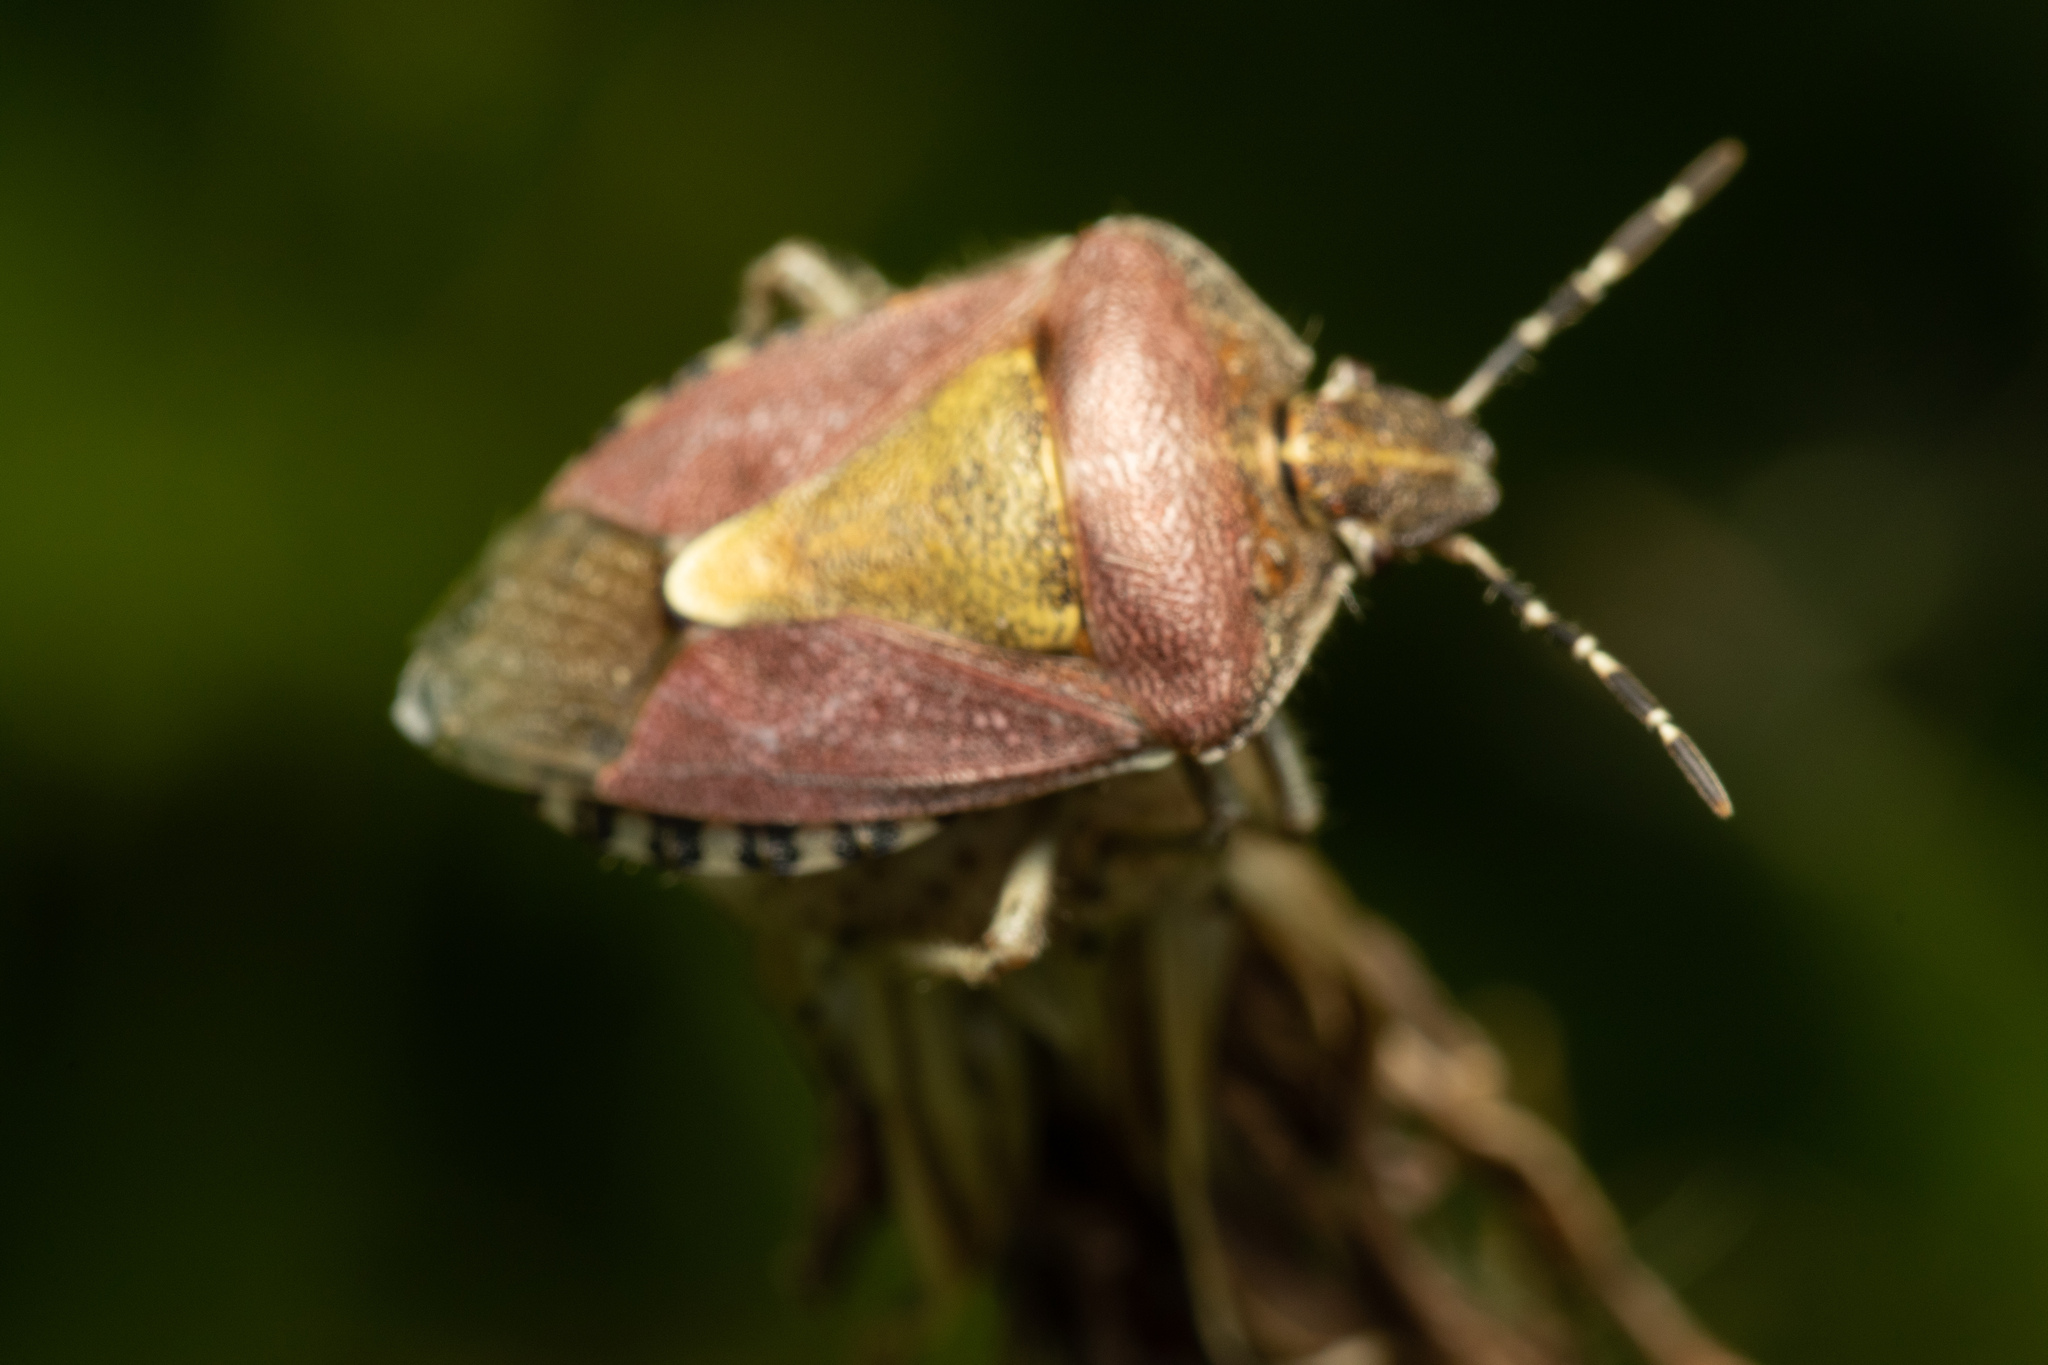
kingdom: Animalia
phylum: Arthropoda
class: Insecta
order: Hemiptera
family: Pentatomidae
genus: Dolycoris
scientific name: Dolycoris baccarum
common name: Sloe bug
